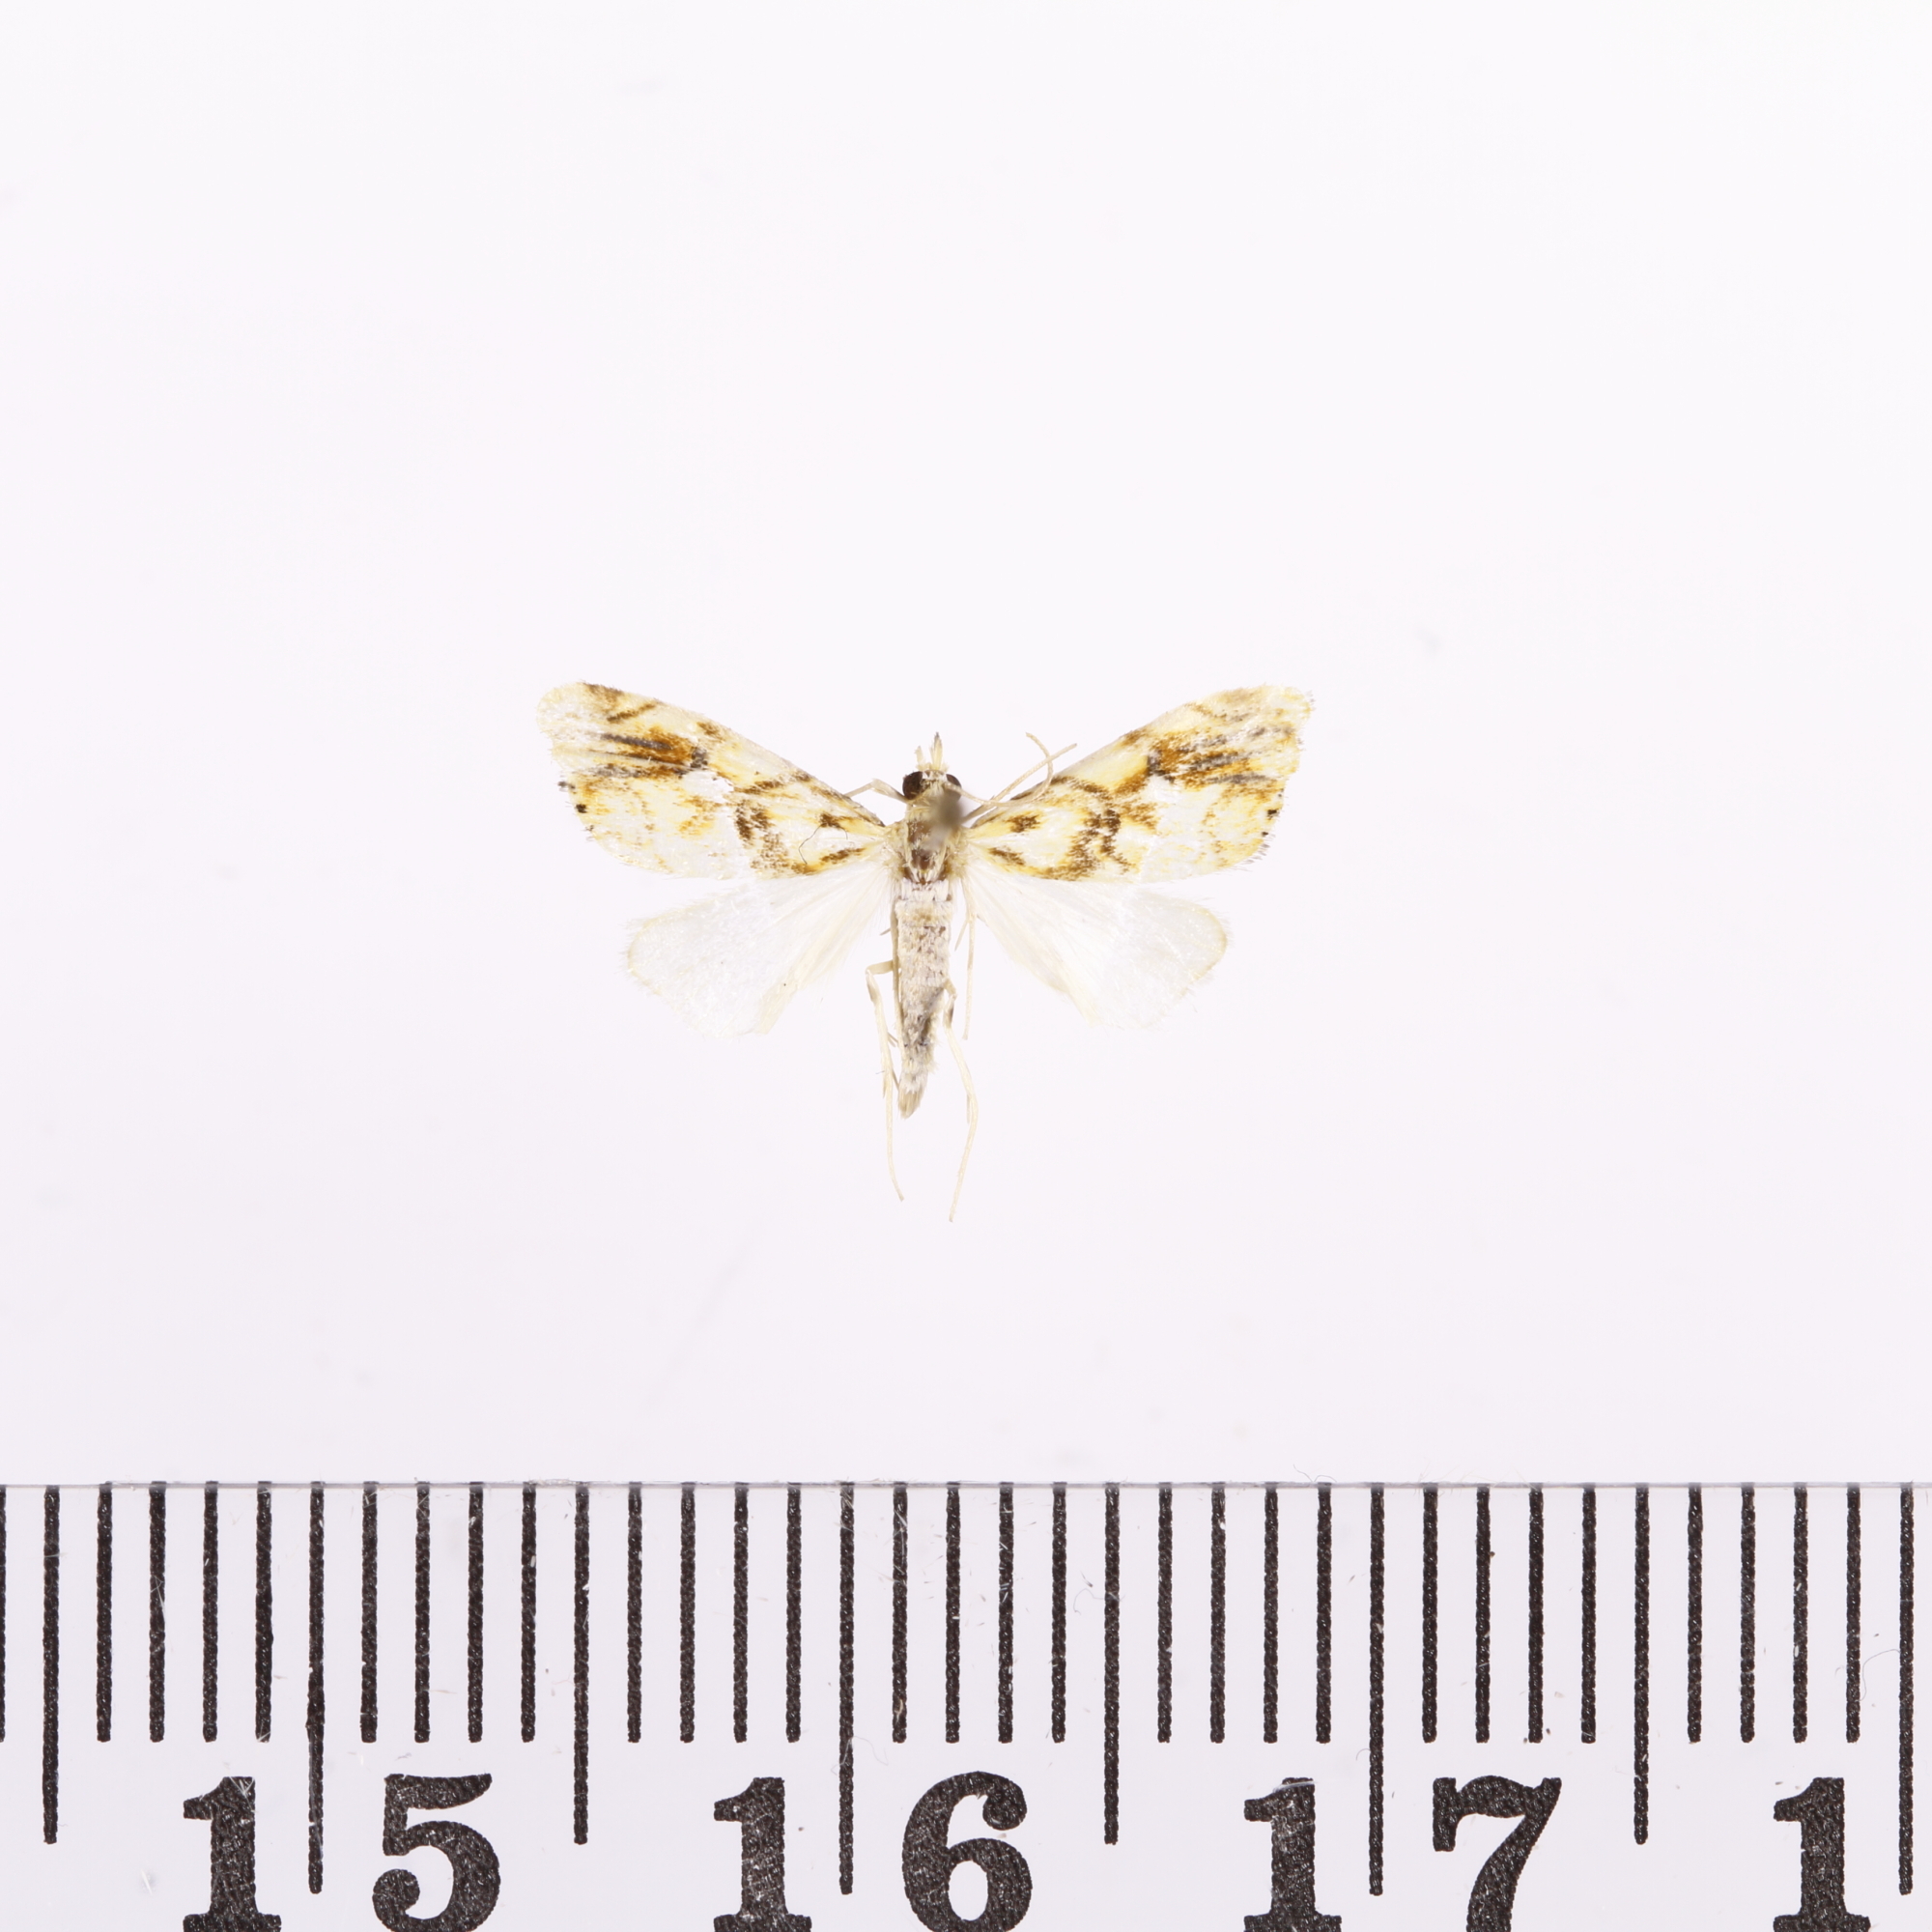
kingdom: Animalia
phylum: Arthropoda
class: Insecta
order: Lepidoptera
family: Crambidae
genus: Glaucocharis
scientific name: Glaucocharis selenaea
